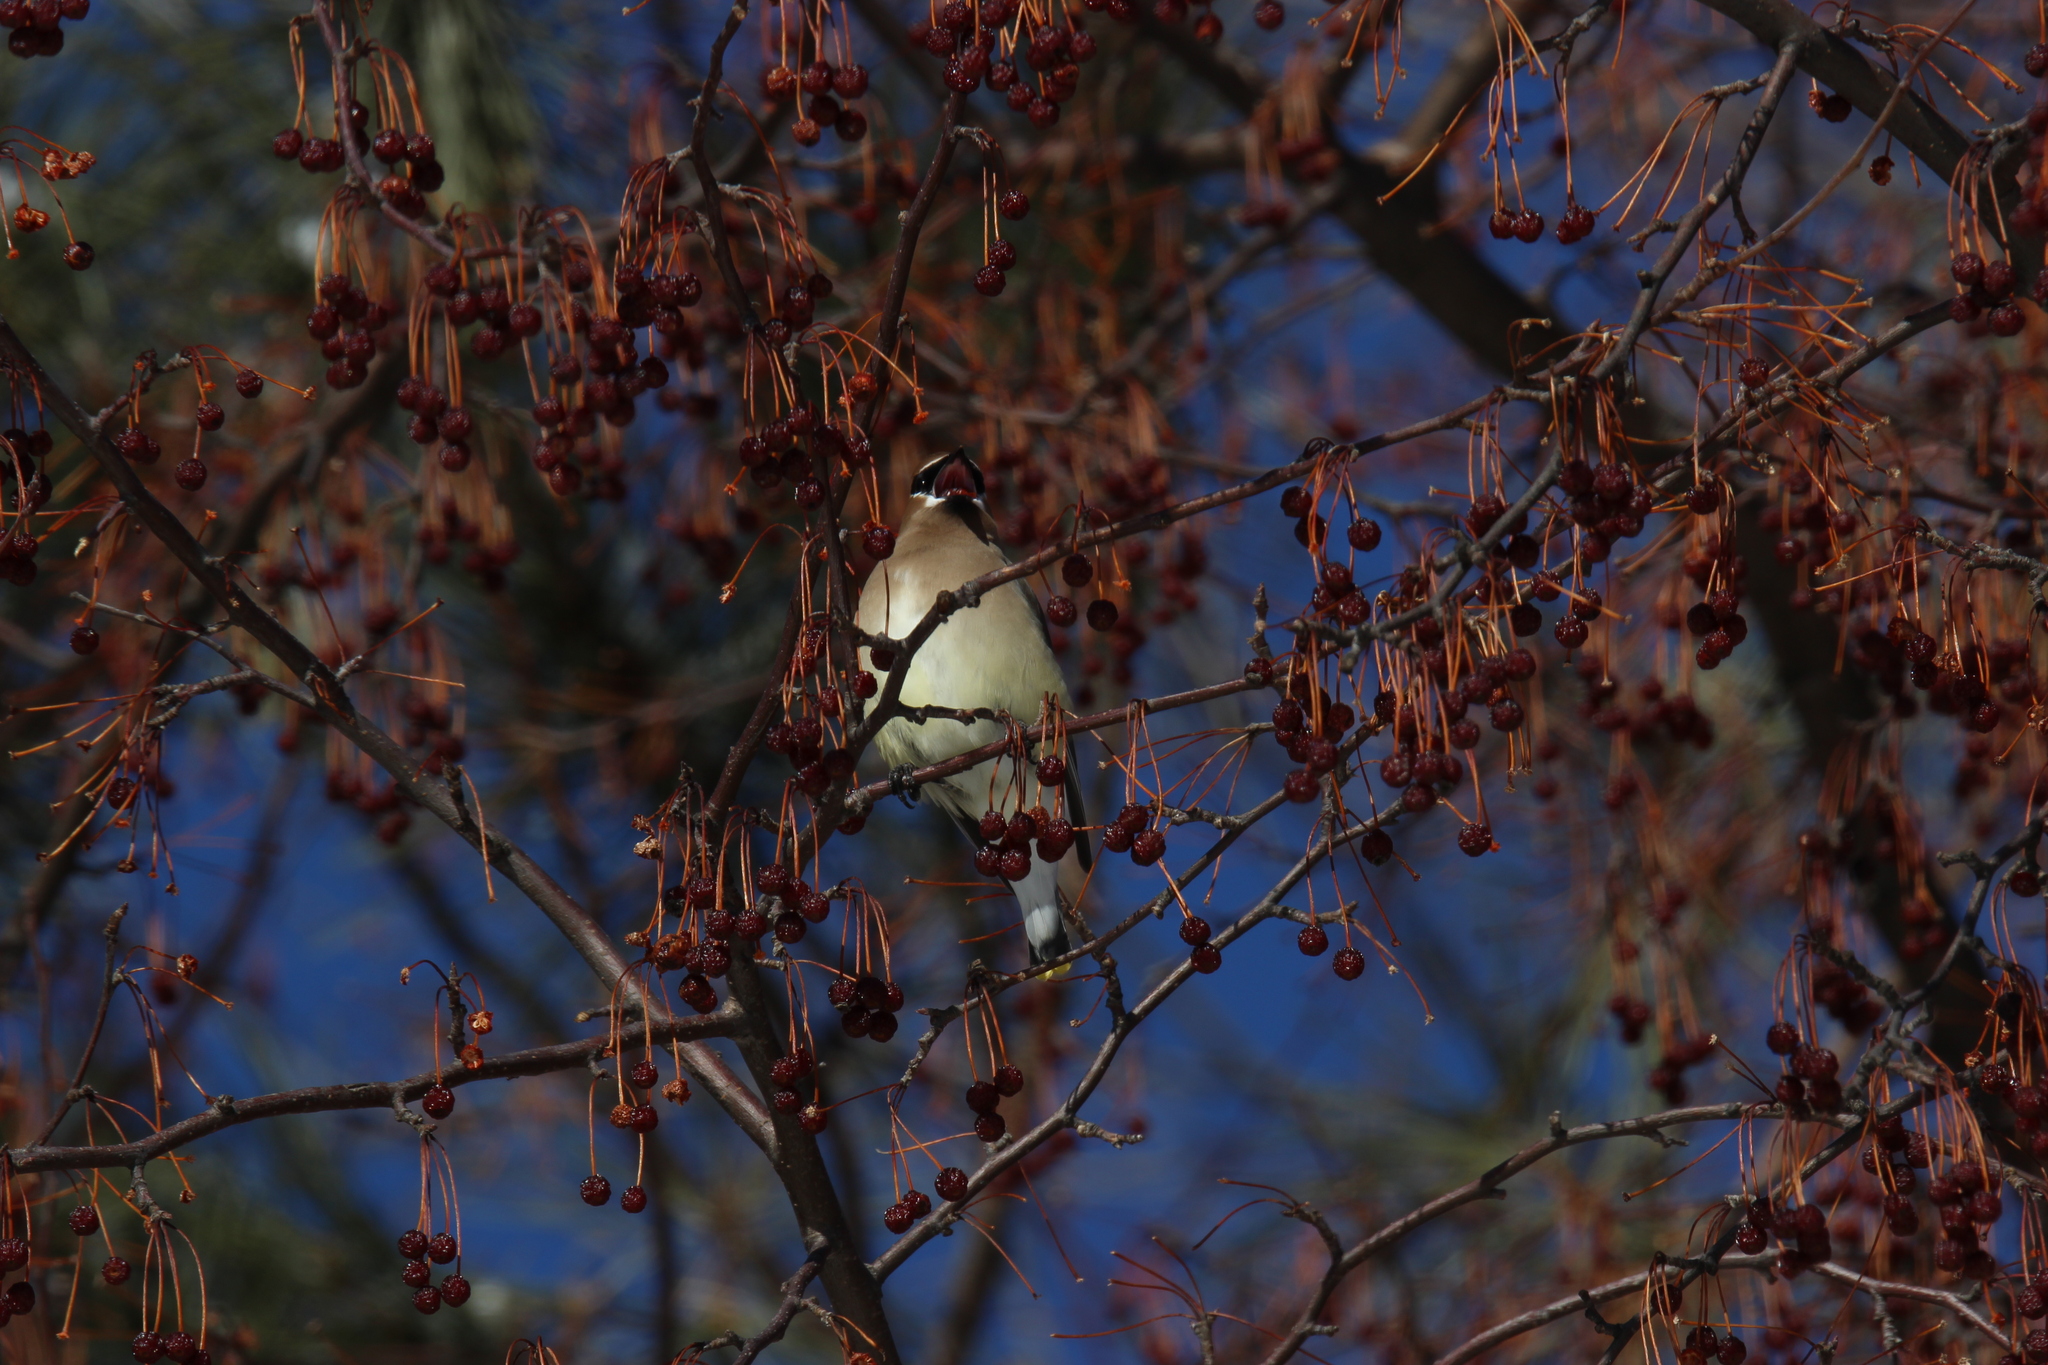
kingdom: Animalia
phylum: Chordata
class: Aves
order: Passeriformes
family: Bombycillidae
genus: Bombycilla
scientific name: Bombycilla cedrorum
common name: Cedar waxwing
